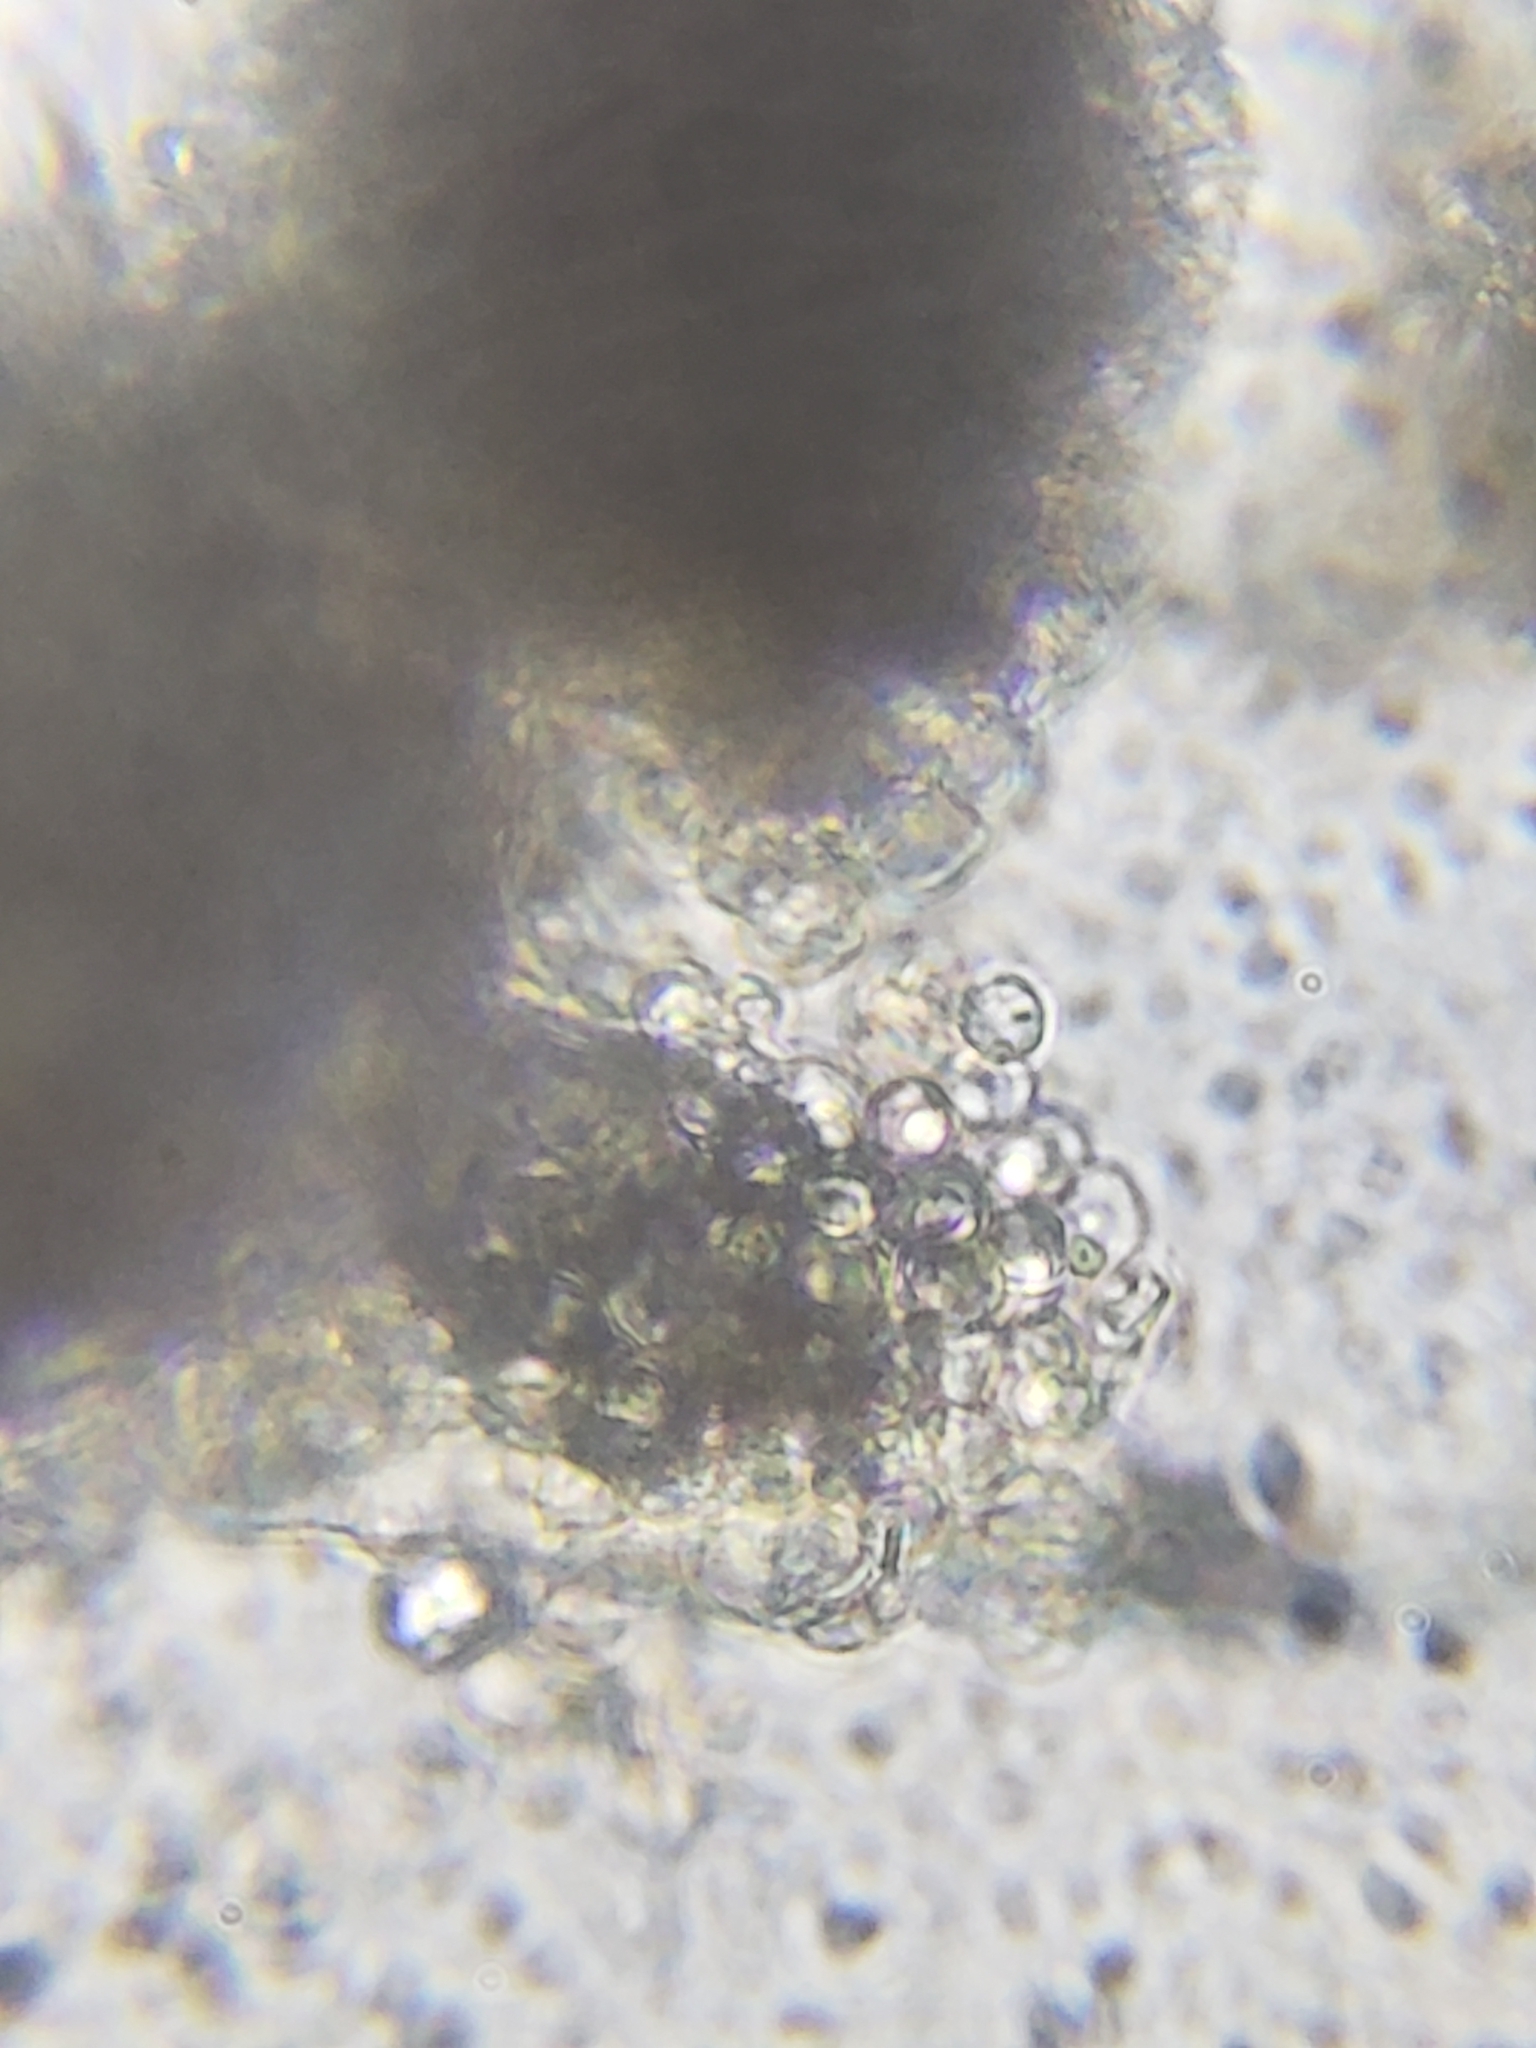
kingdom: Fungi
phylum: Basidiomycota
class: Agaricomycetes
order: Polyporales
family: Meruliaceae
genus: Bulbillomyces
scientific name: Bulbillomyces farinosus
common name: Couscous crust
